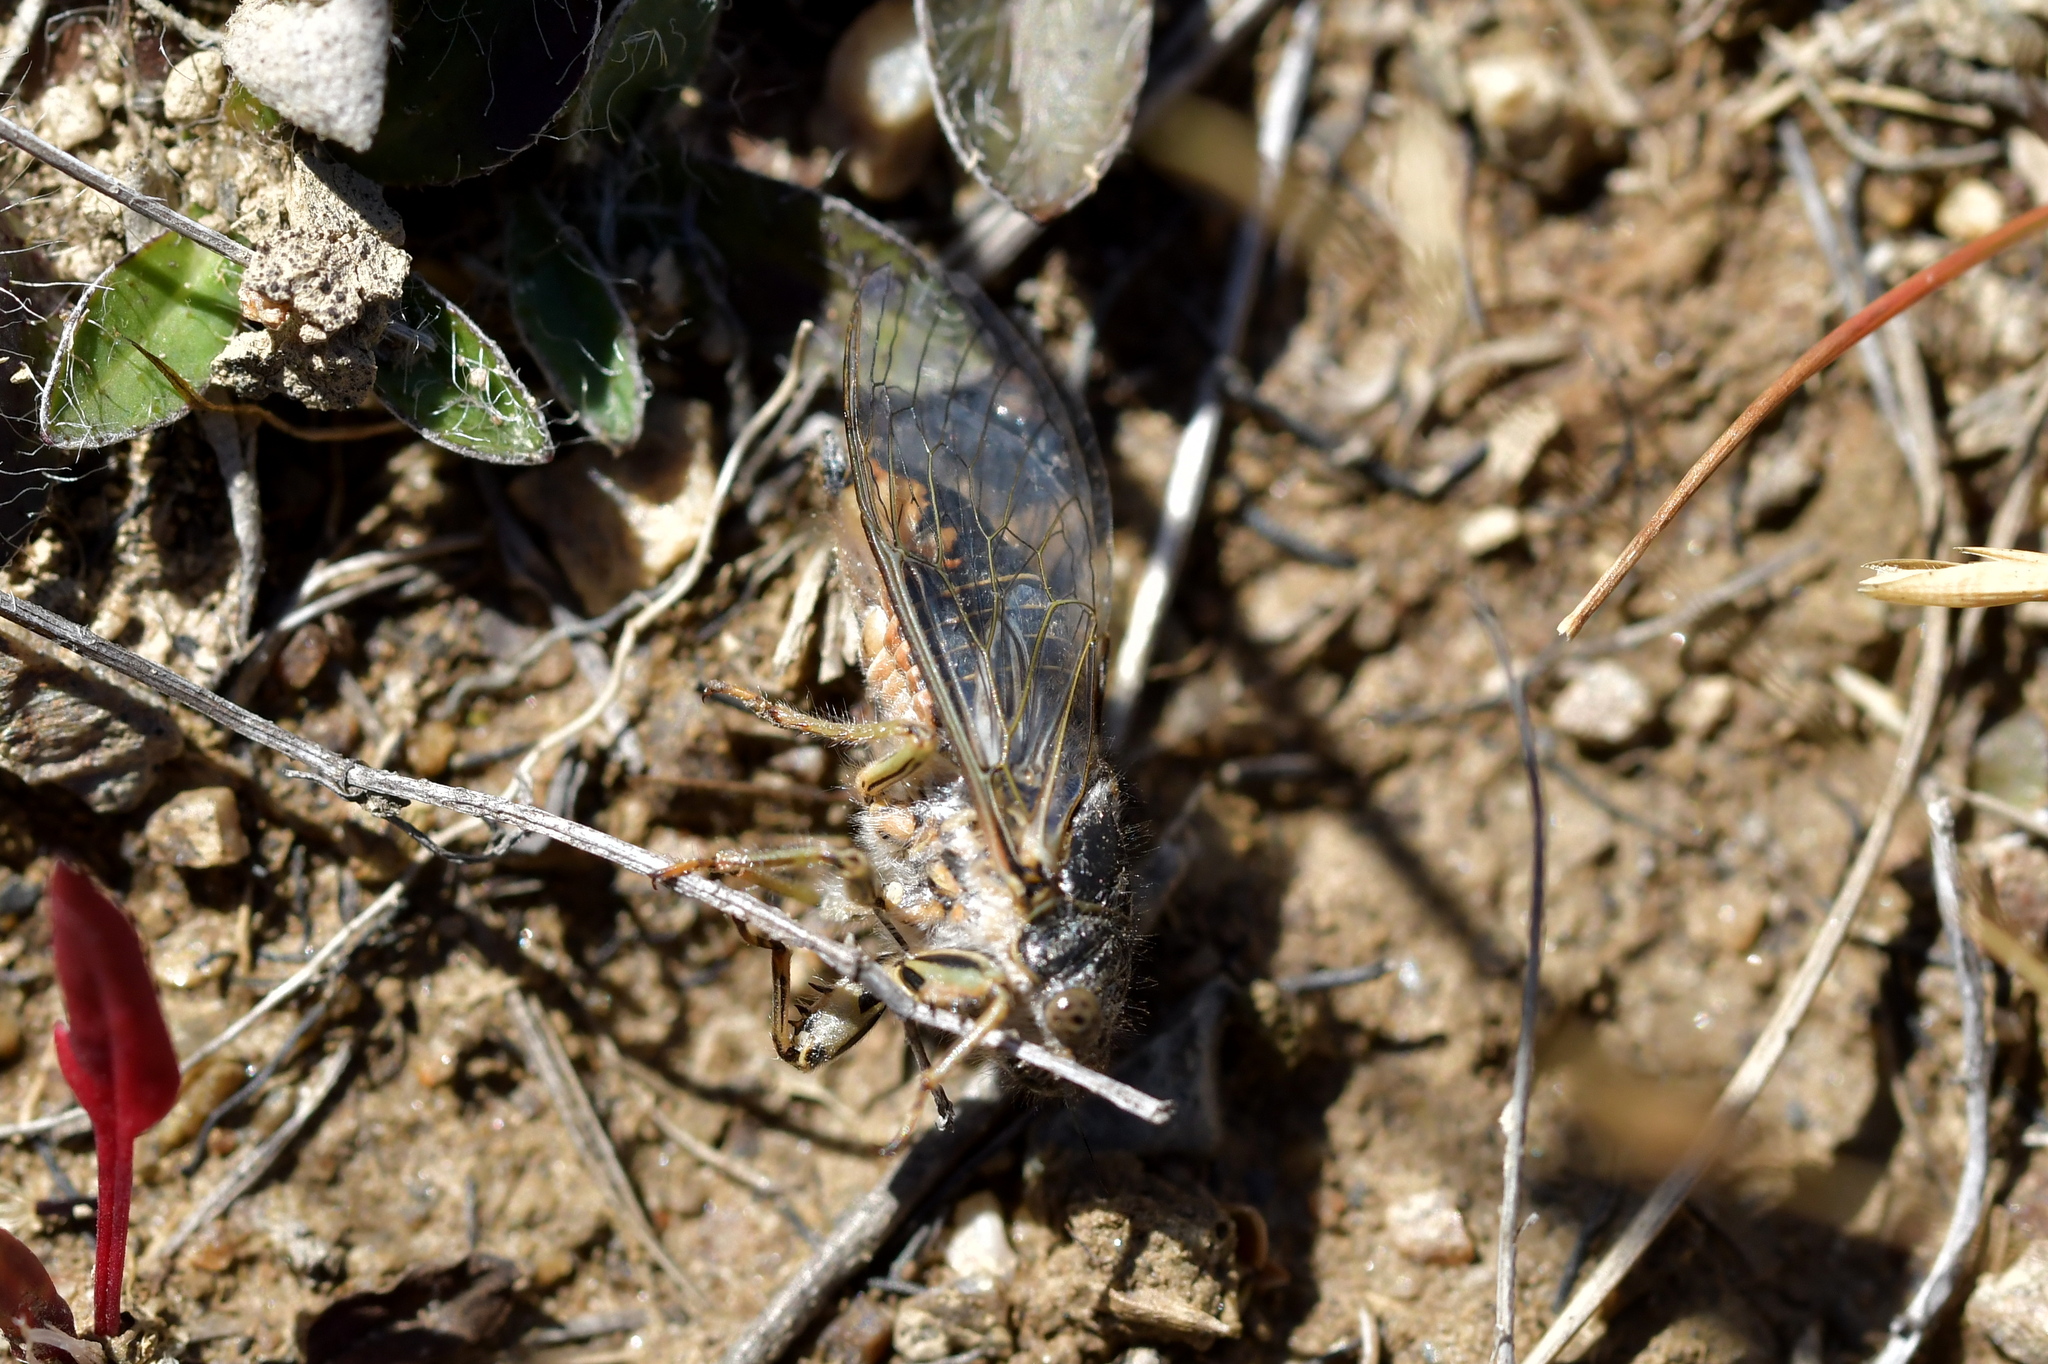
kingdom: Animalia
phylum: Arthropoda
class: Insecta
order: Hemiptera
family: Cicadidae
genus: Maoricicada
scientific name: Maoricicada otagoensis
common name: Otago speargrass cicada
